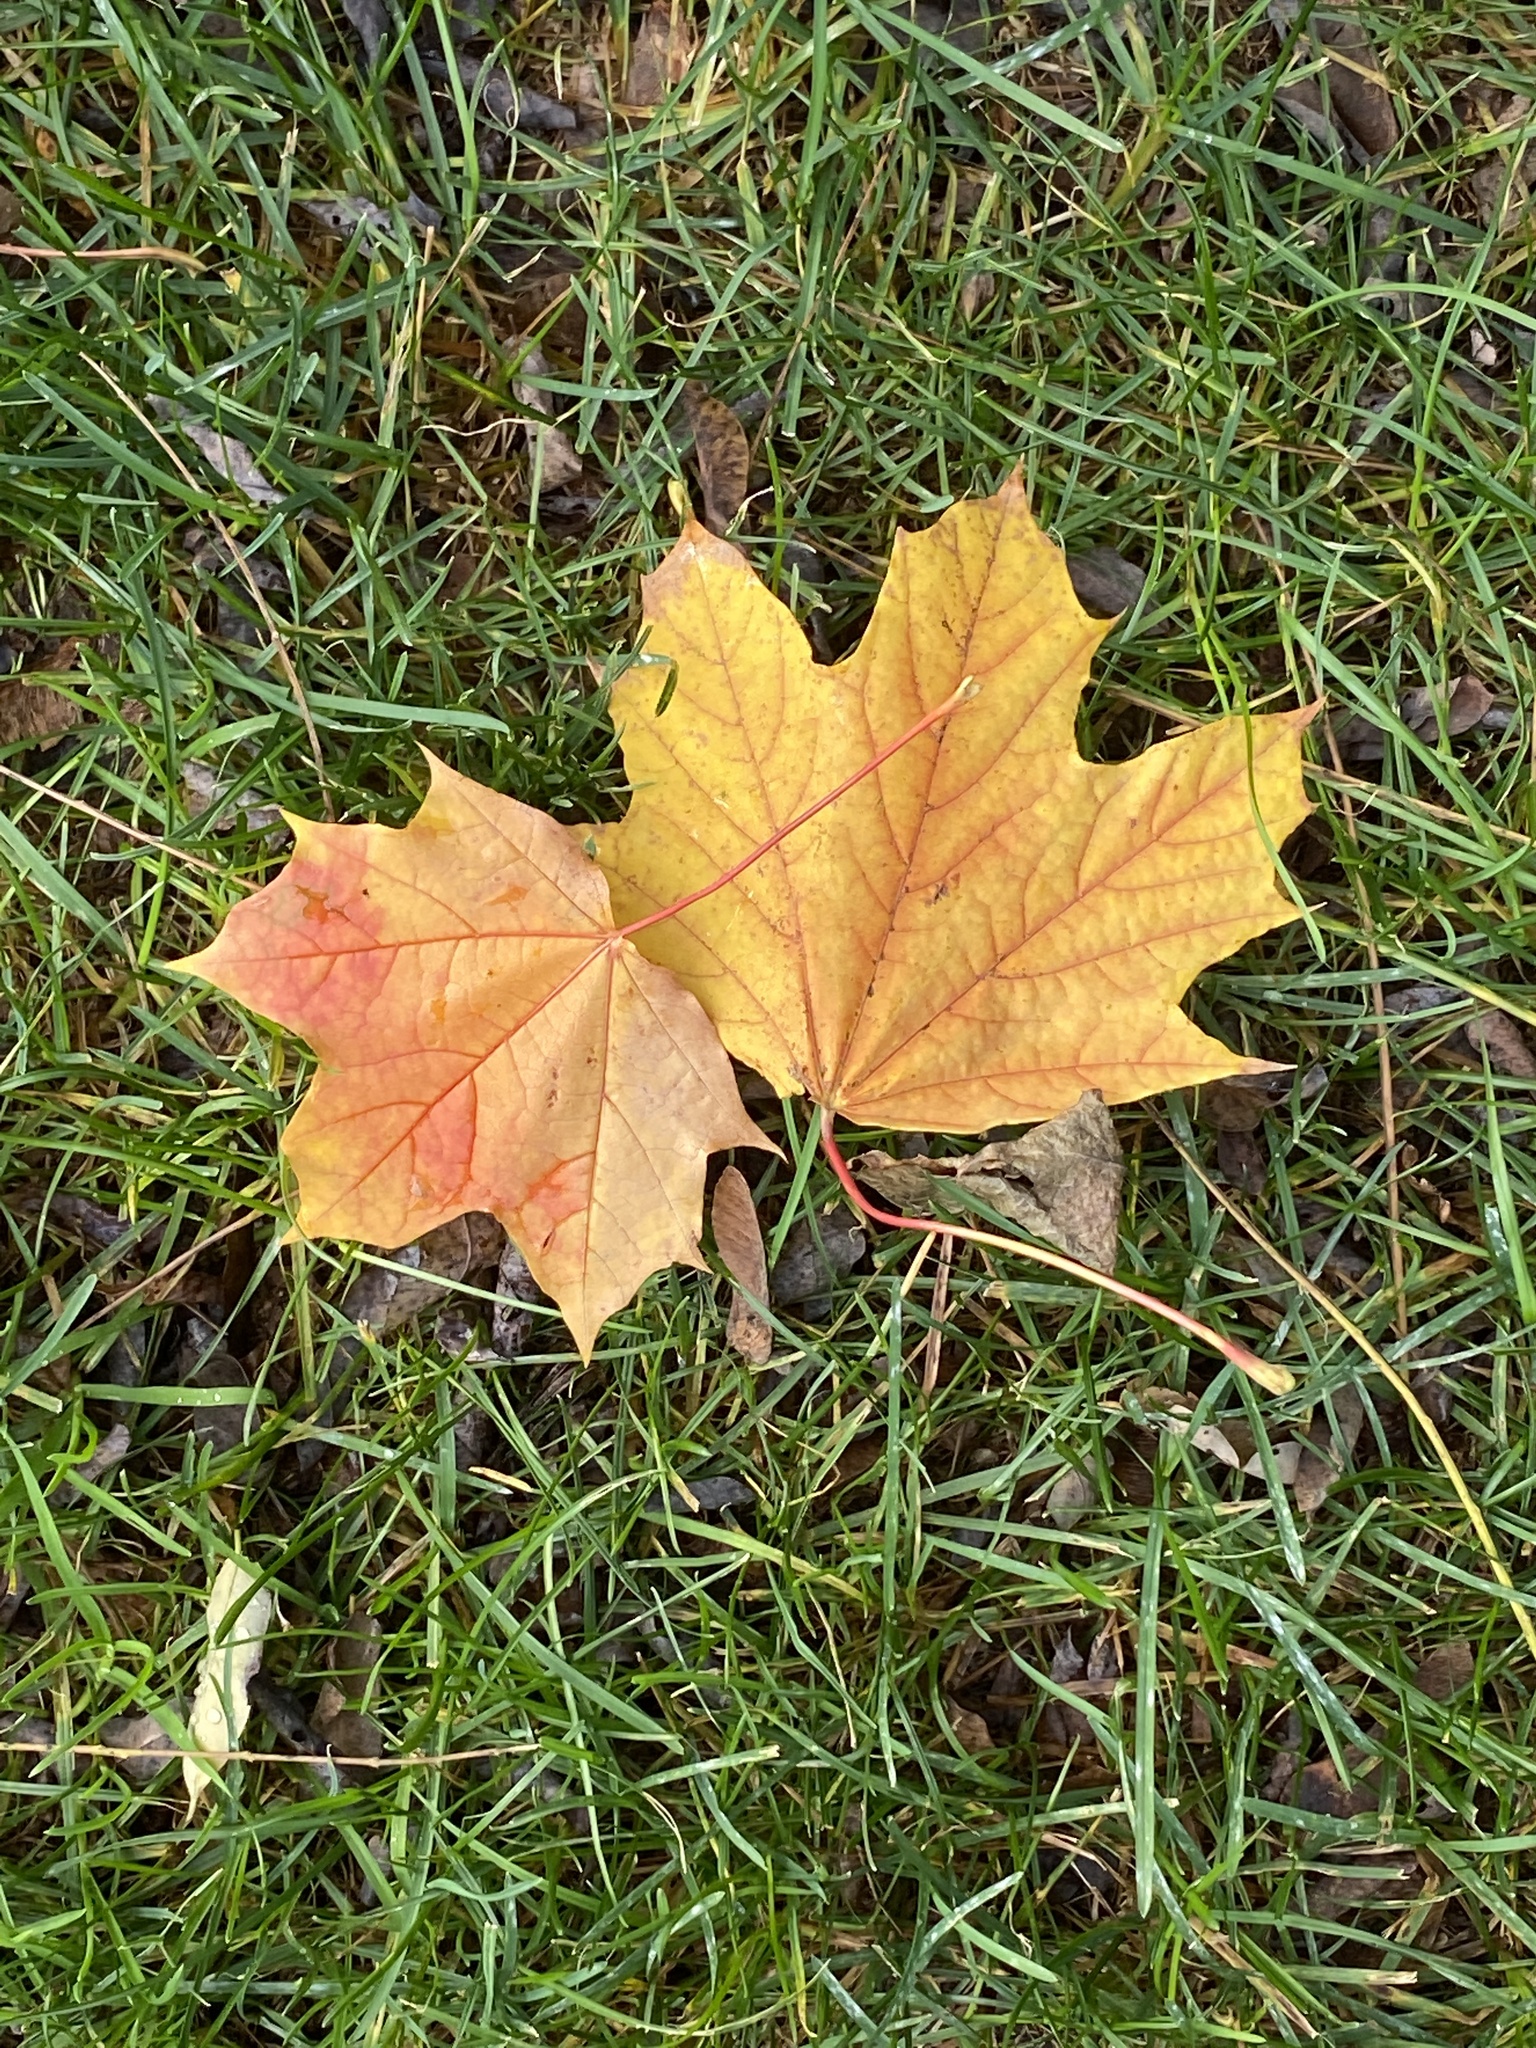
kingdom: Plantae
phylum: Tracheophyta
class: Magnoliopsida
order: Sapindales
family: Sapindaceae
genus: Acer
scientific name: Acer platanoides
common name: Norway maple
